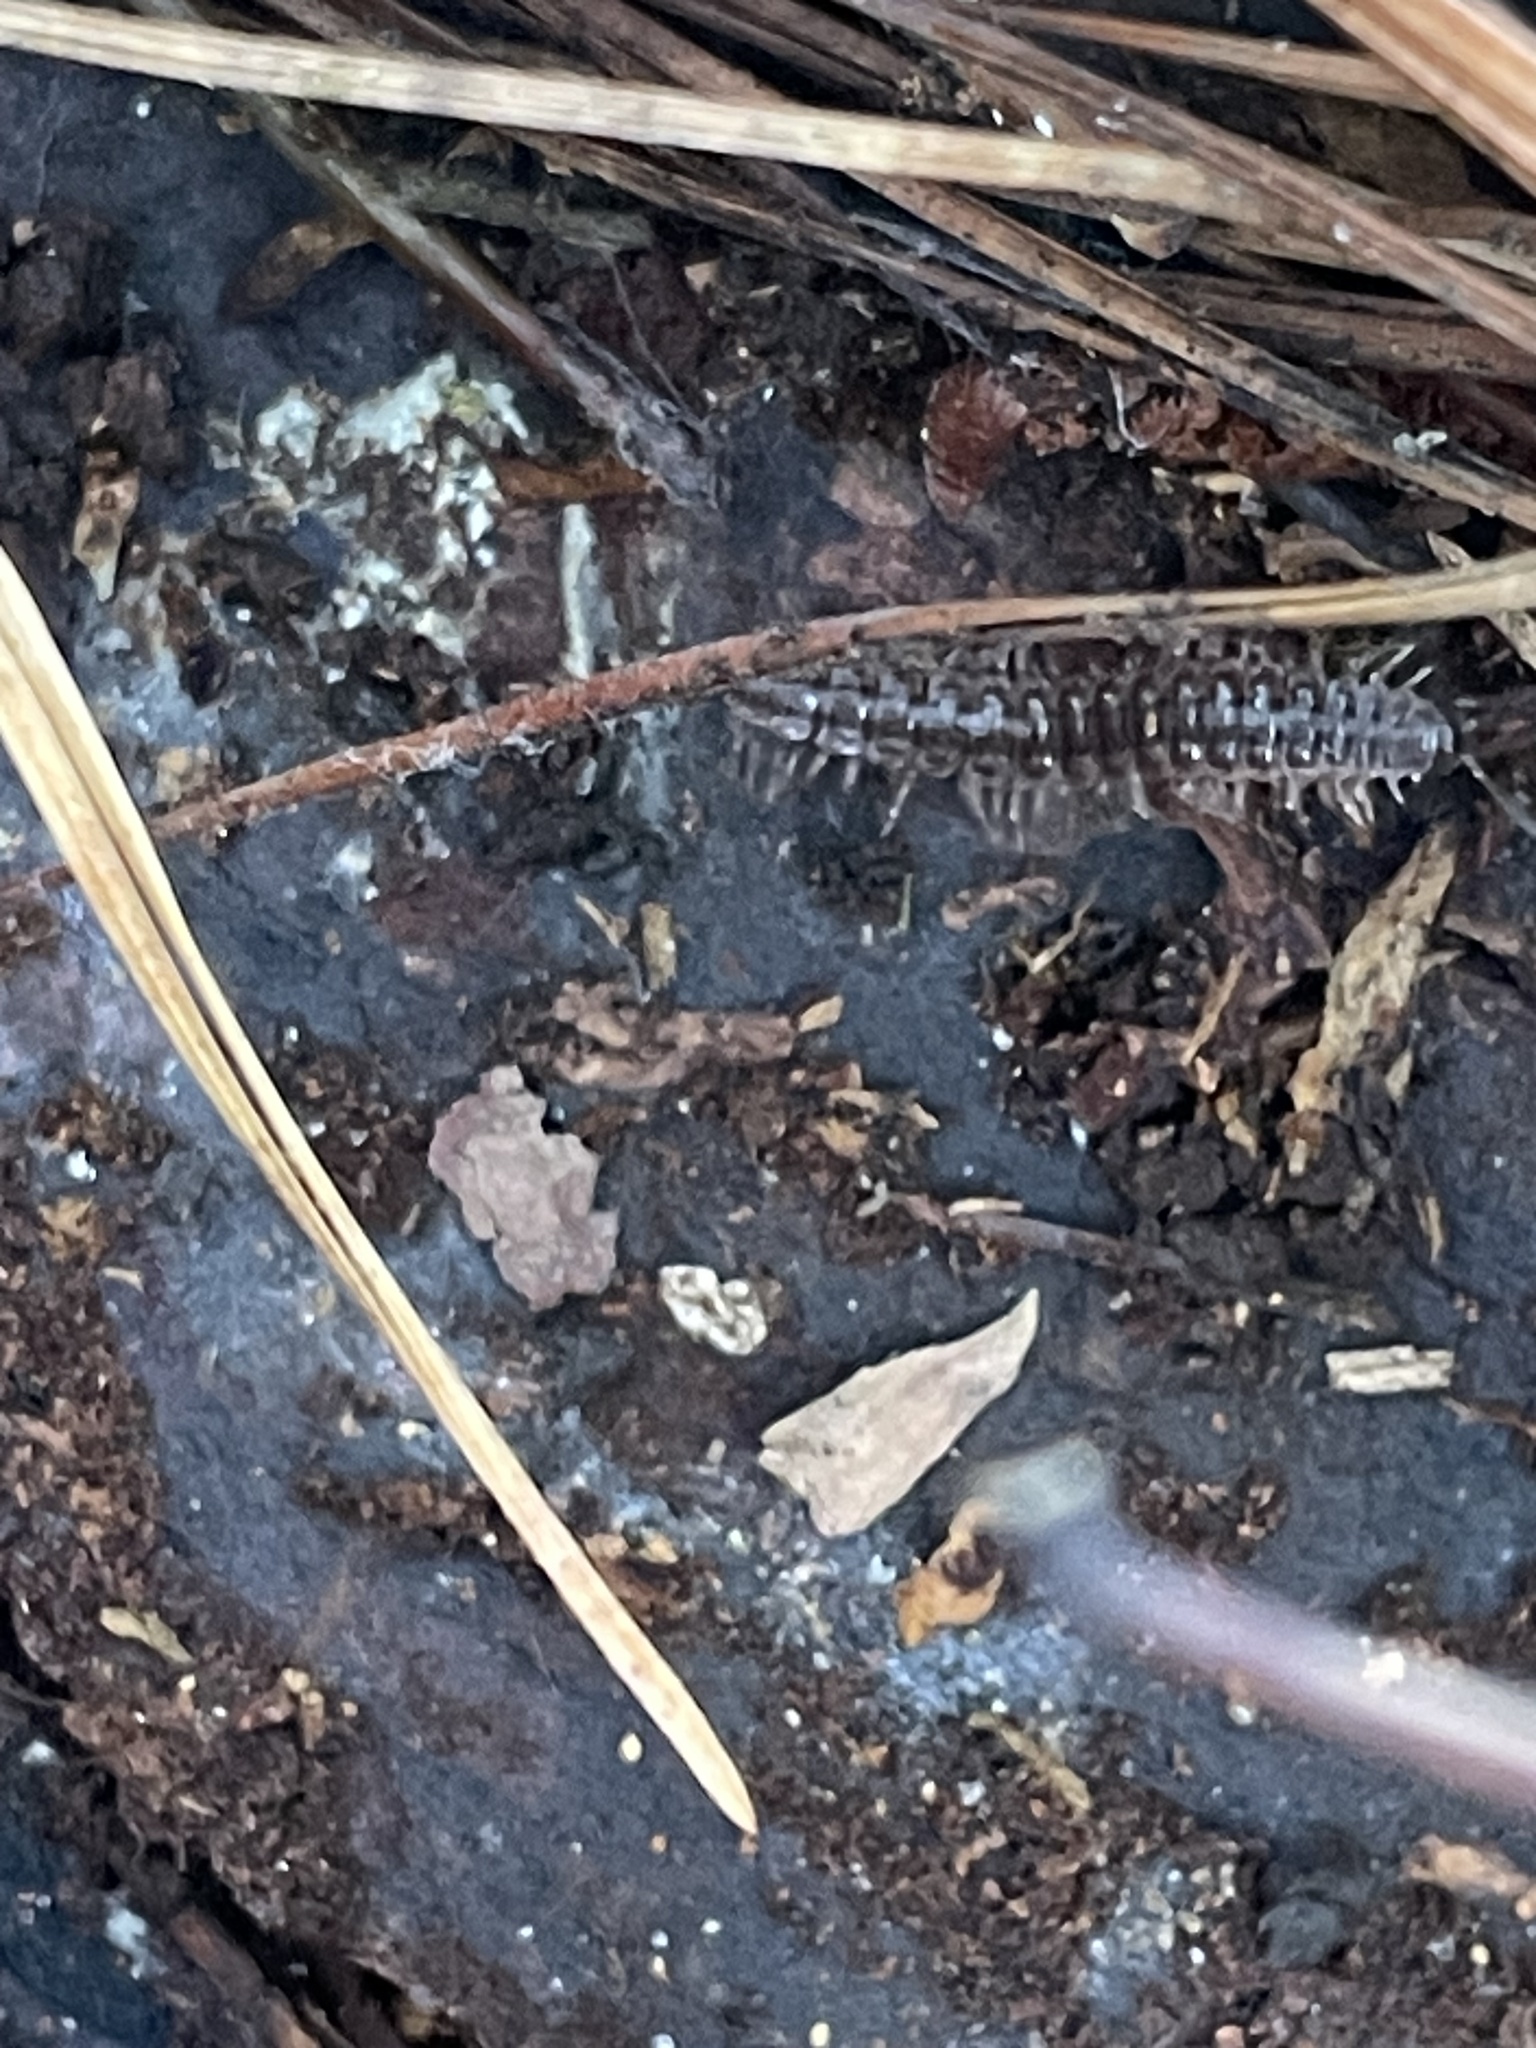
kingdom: Animalia
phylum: Arthropoda
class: Diplopoda
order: Polydesmida
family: Polydesmidae
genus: Pseudopolydesmus
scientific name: Pseudopolydesmus serratus
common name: Common pink flat-back millipede
